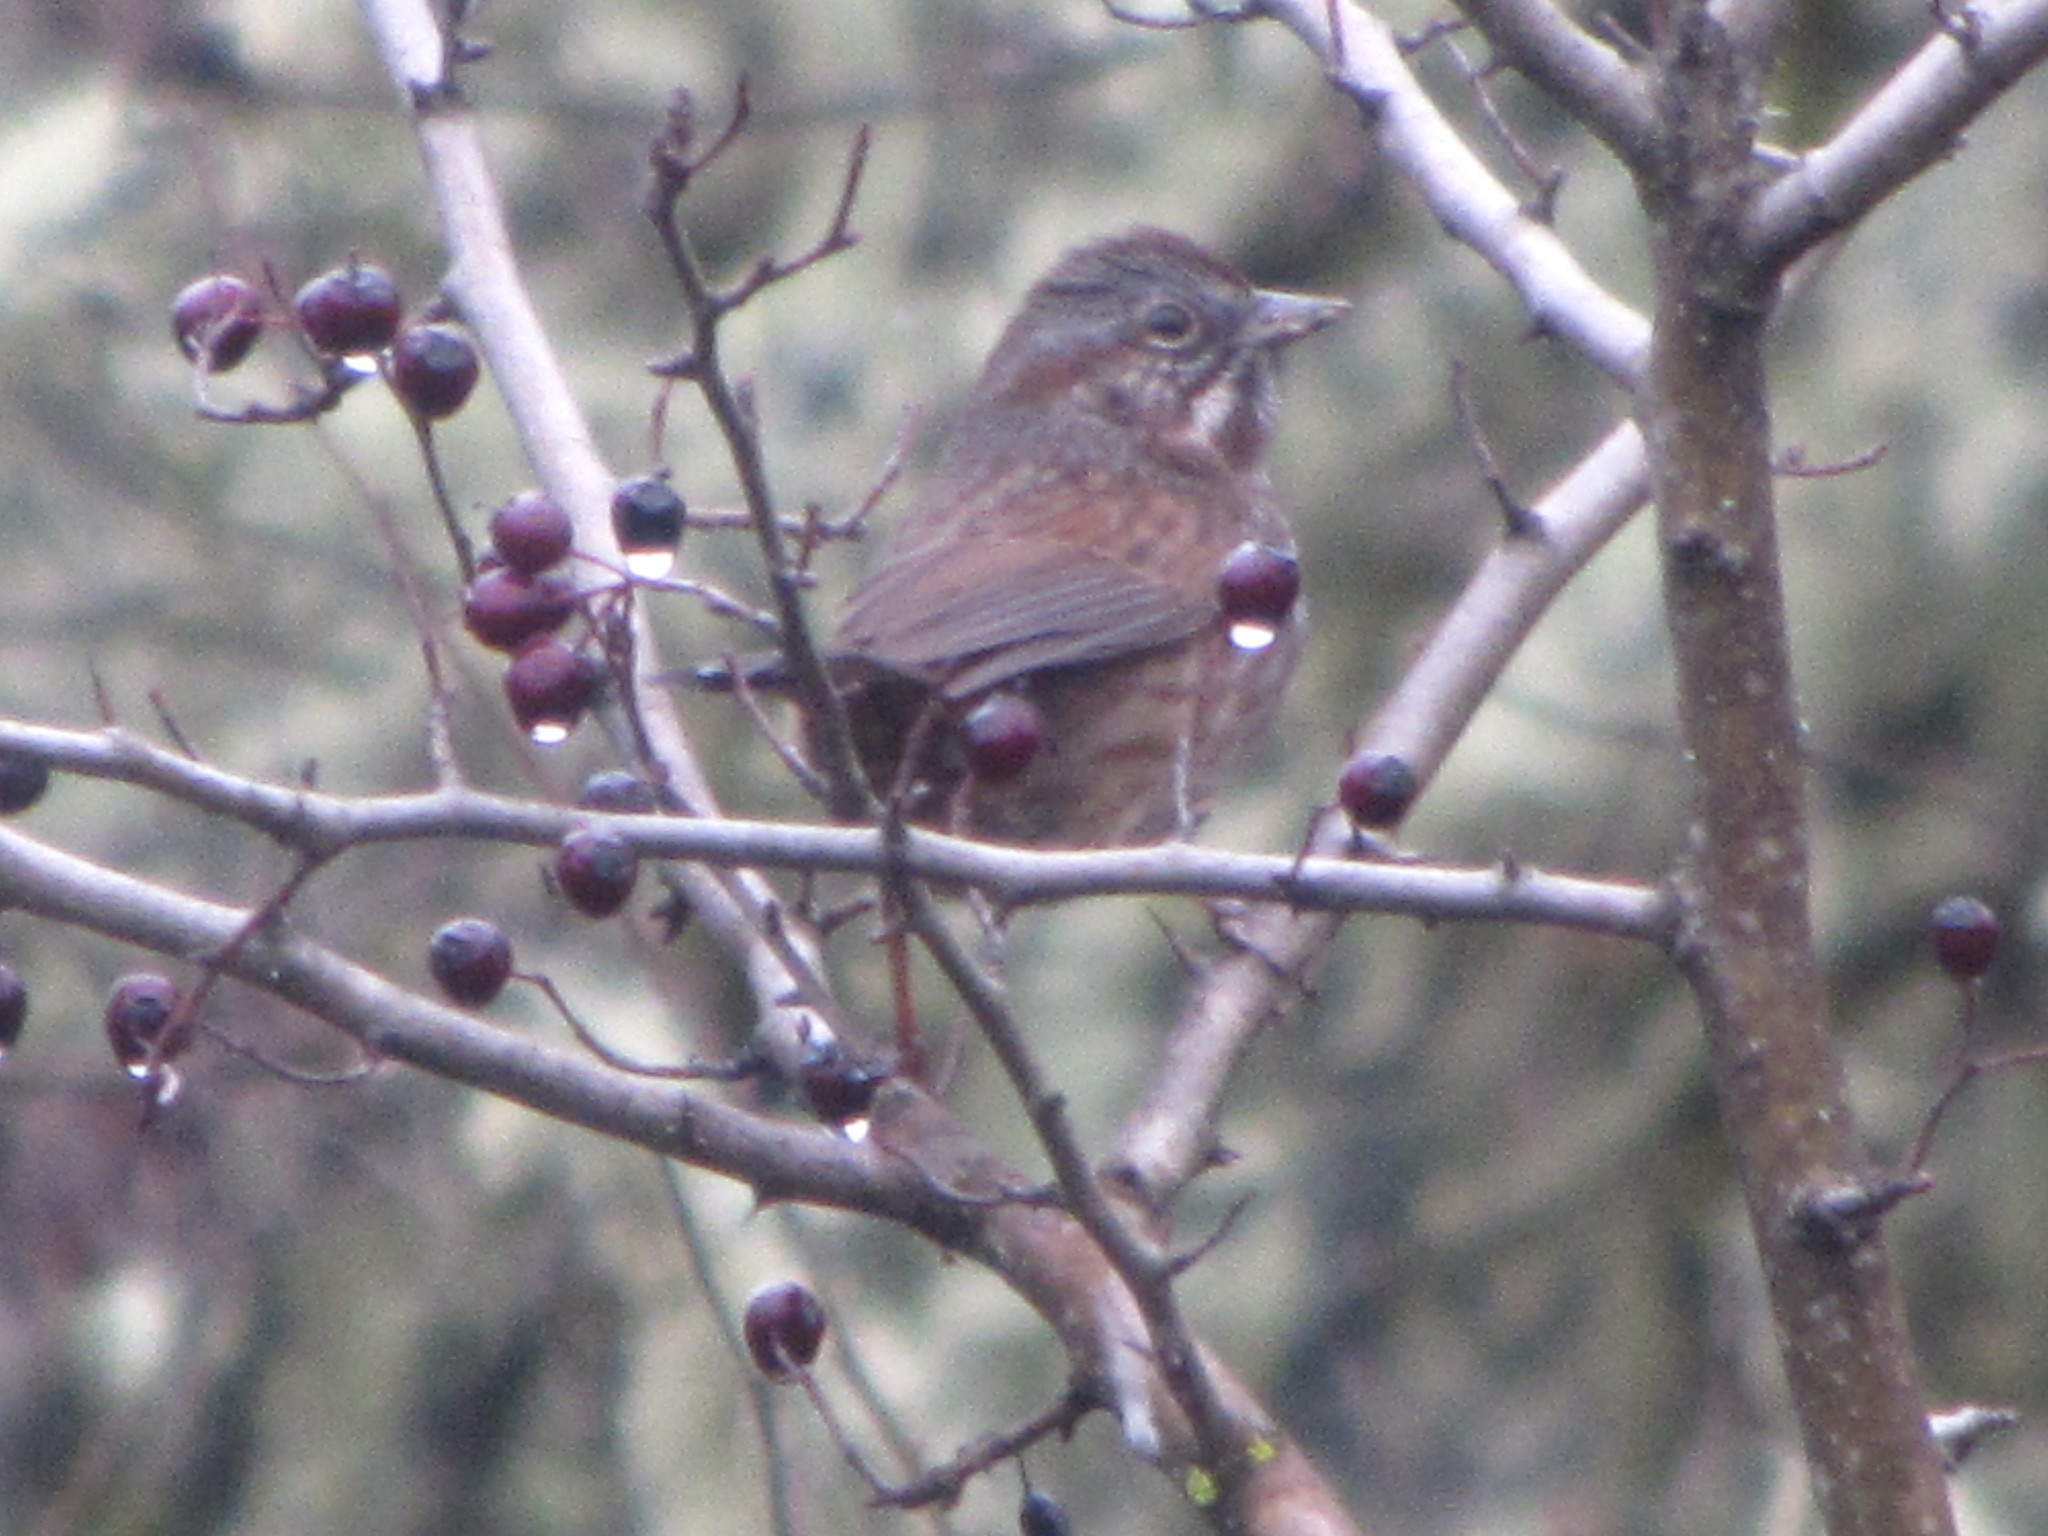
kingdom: Animalia
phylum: Chordata
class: Aves
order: Passeriformes
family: Passerellidae
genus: Melospiza
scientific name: Melospiza melodia
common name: Song sparrow
